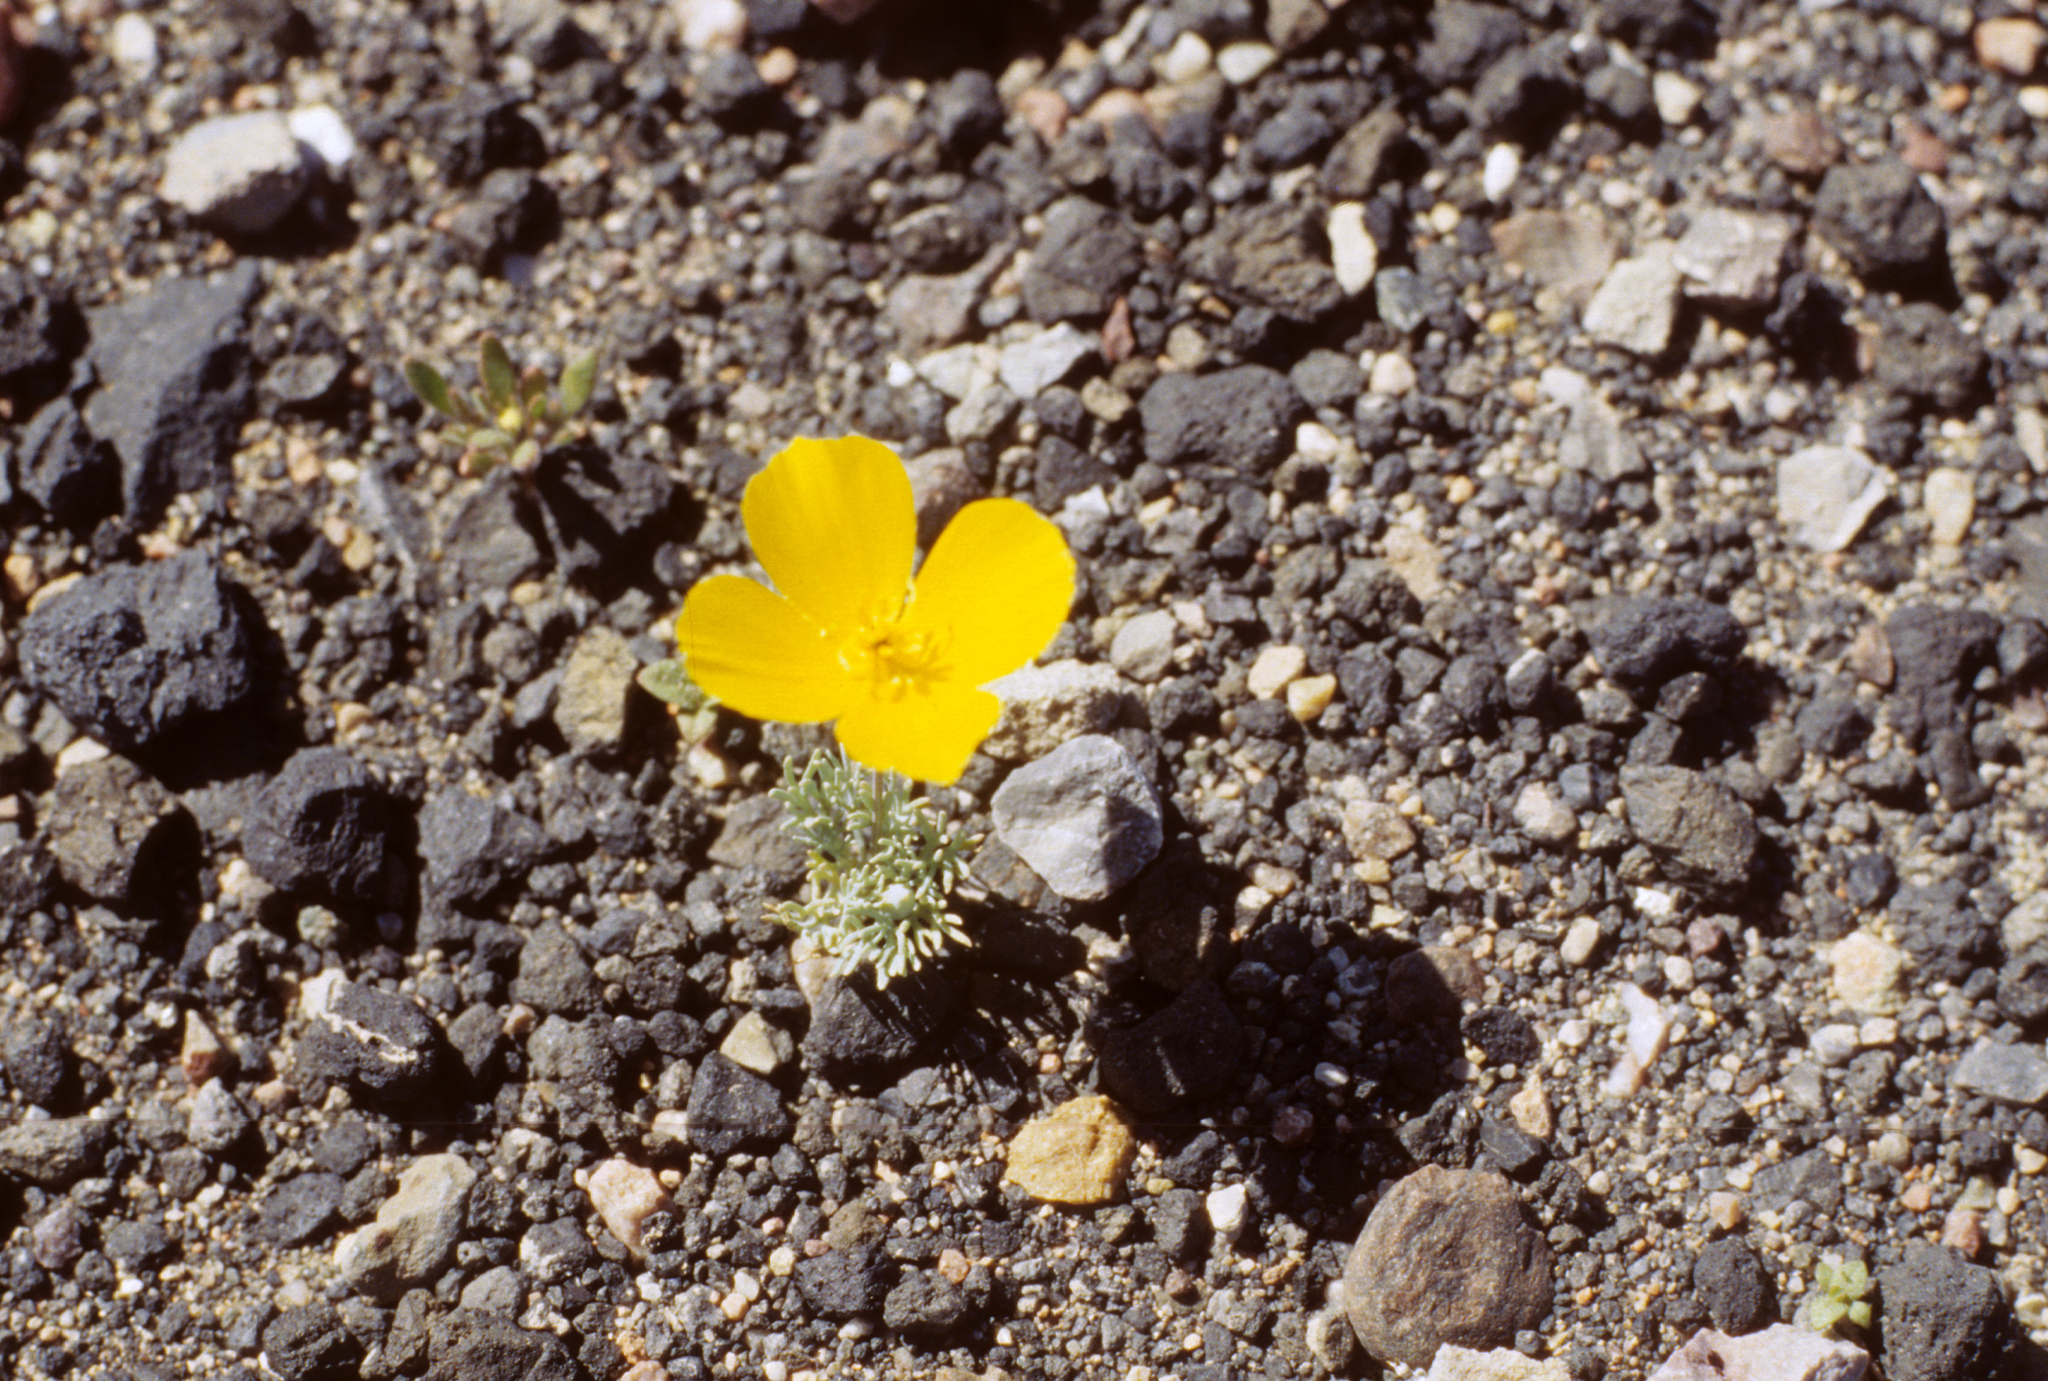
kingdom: Plantae
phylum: Tracheophyta
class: Magnoliopsida
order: Ranunculales
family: Papaveraceae
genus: Eschscholzia
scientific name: Eschscholzia glyptosperma
